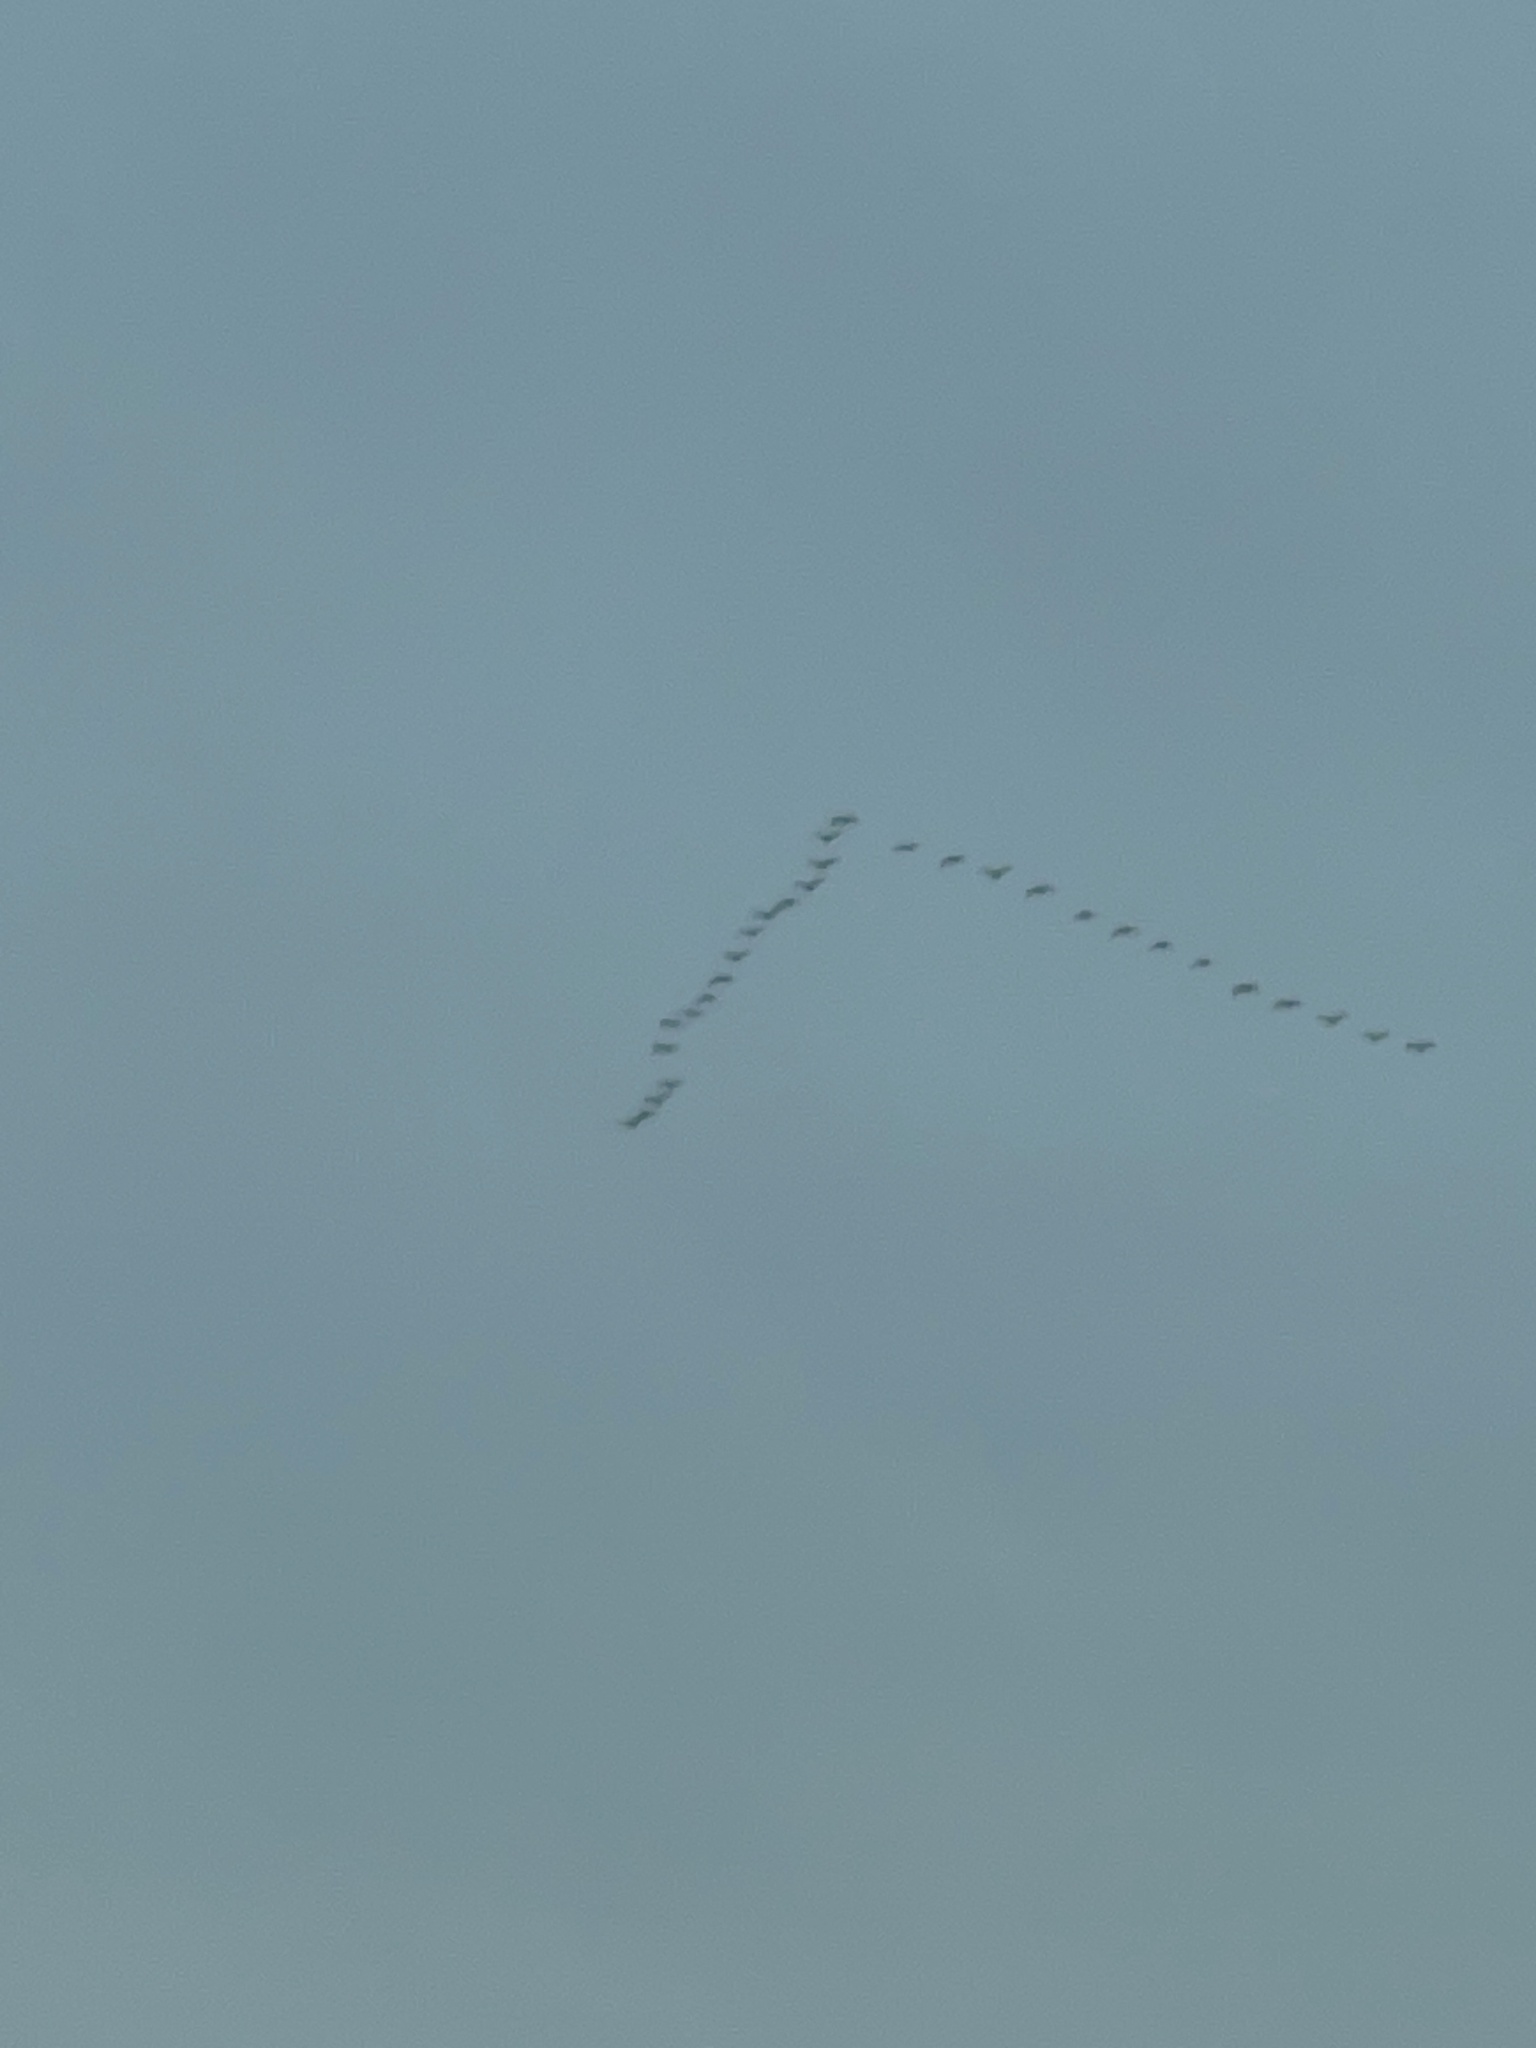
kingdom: Animalia
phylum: Chordata
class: Aves
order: Anseriformes
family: Anatidae
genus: Branta
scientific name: Branta canadensis
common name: Canada goose
